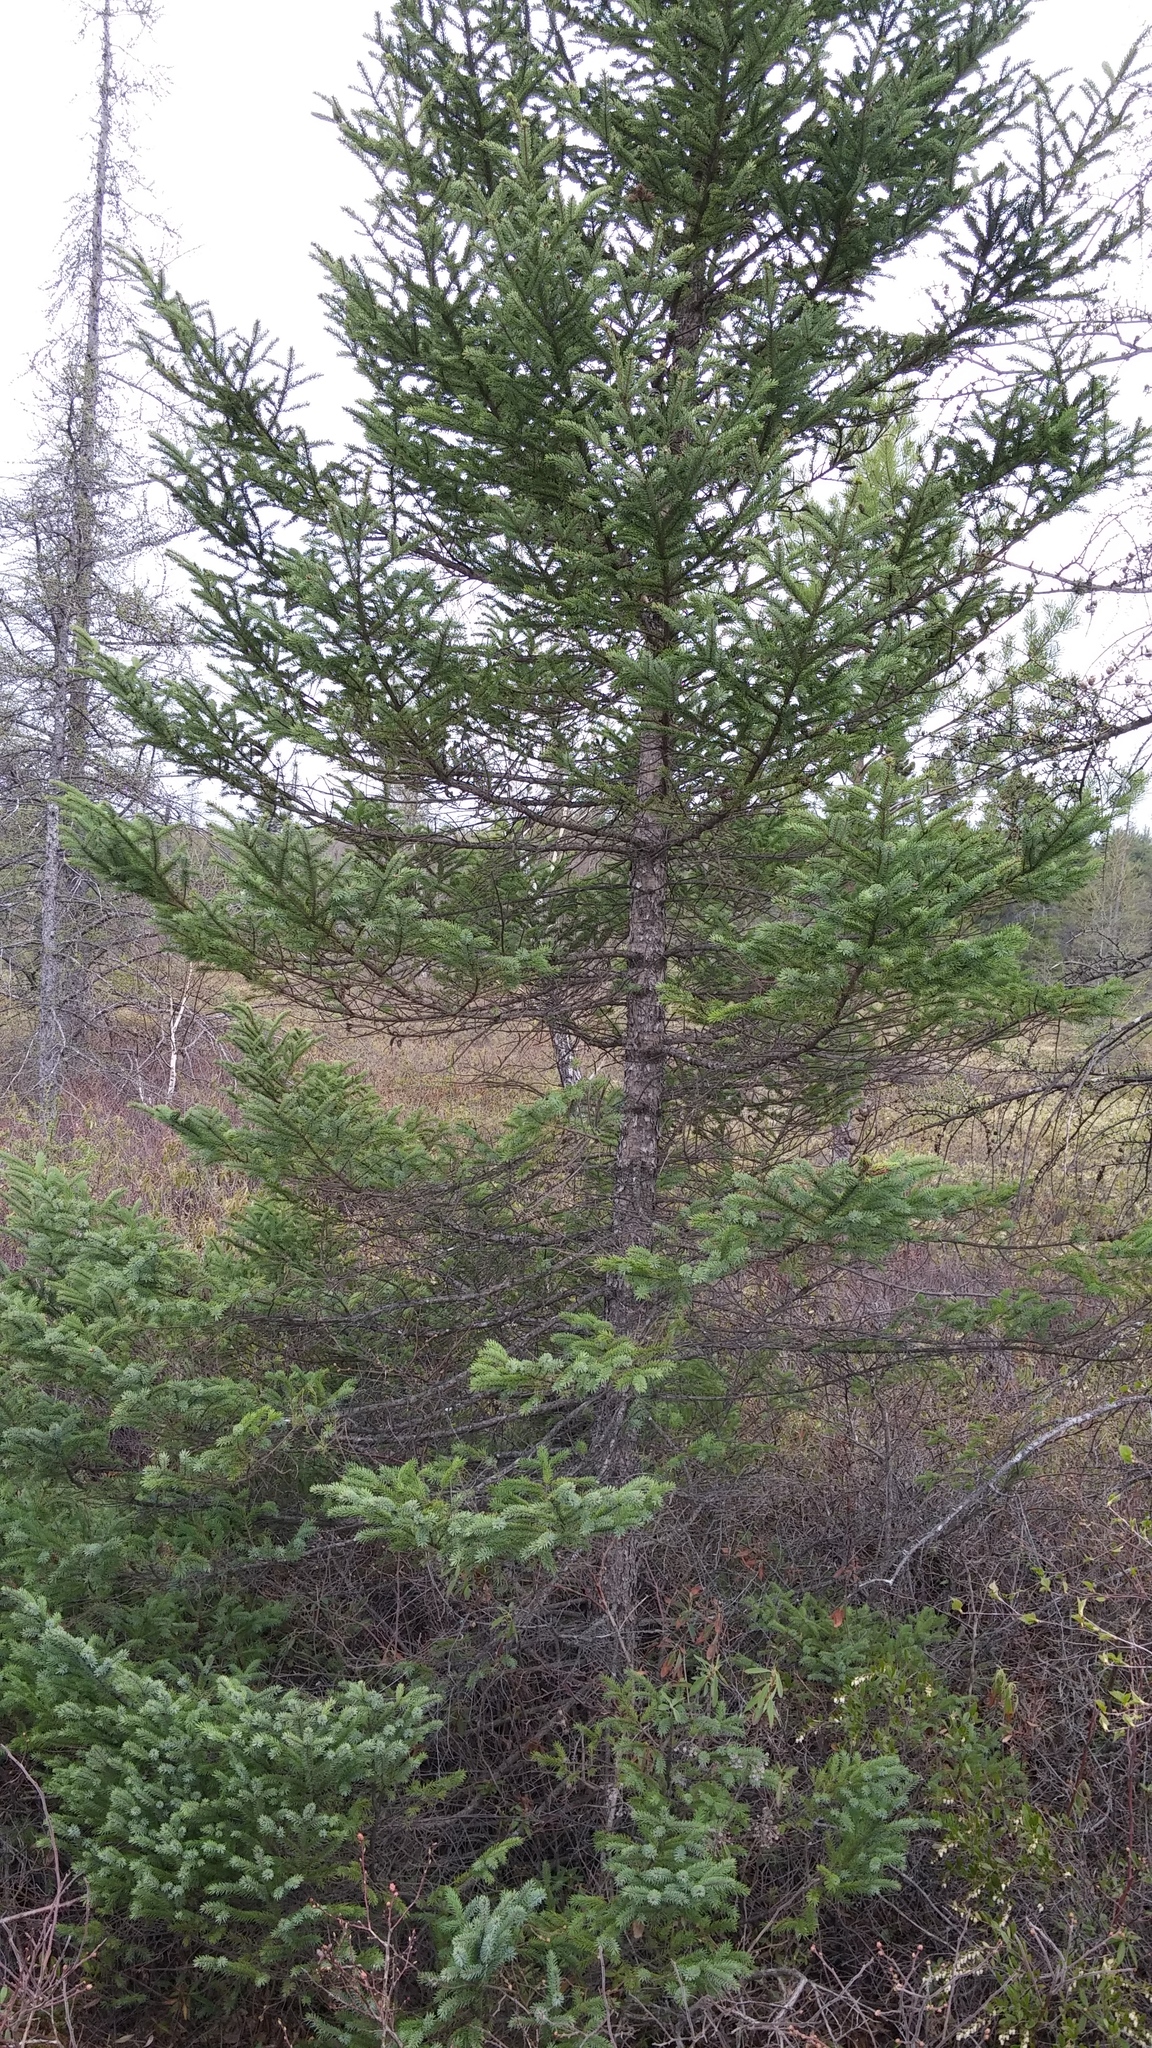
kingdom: Plantae
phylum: Tracheophyta
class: Pinopsida
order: Pinales
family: Pinaceae
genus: Picea
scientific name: Picea mariana
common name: Black spruce
